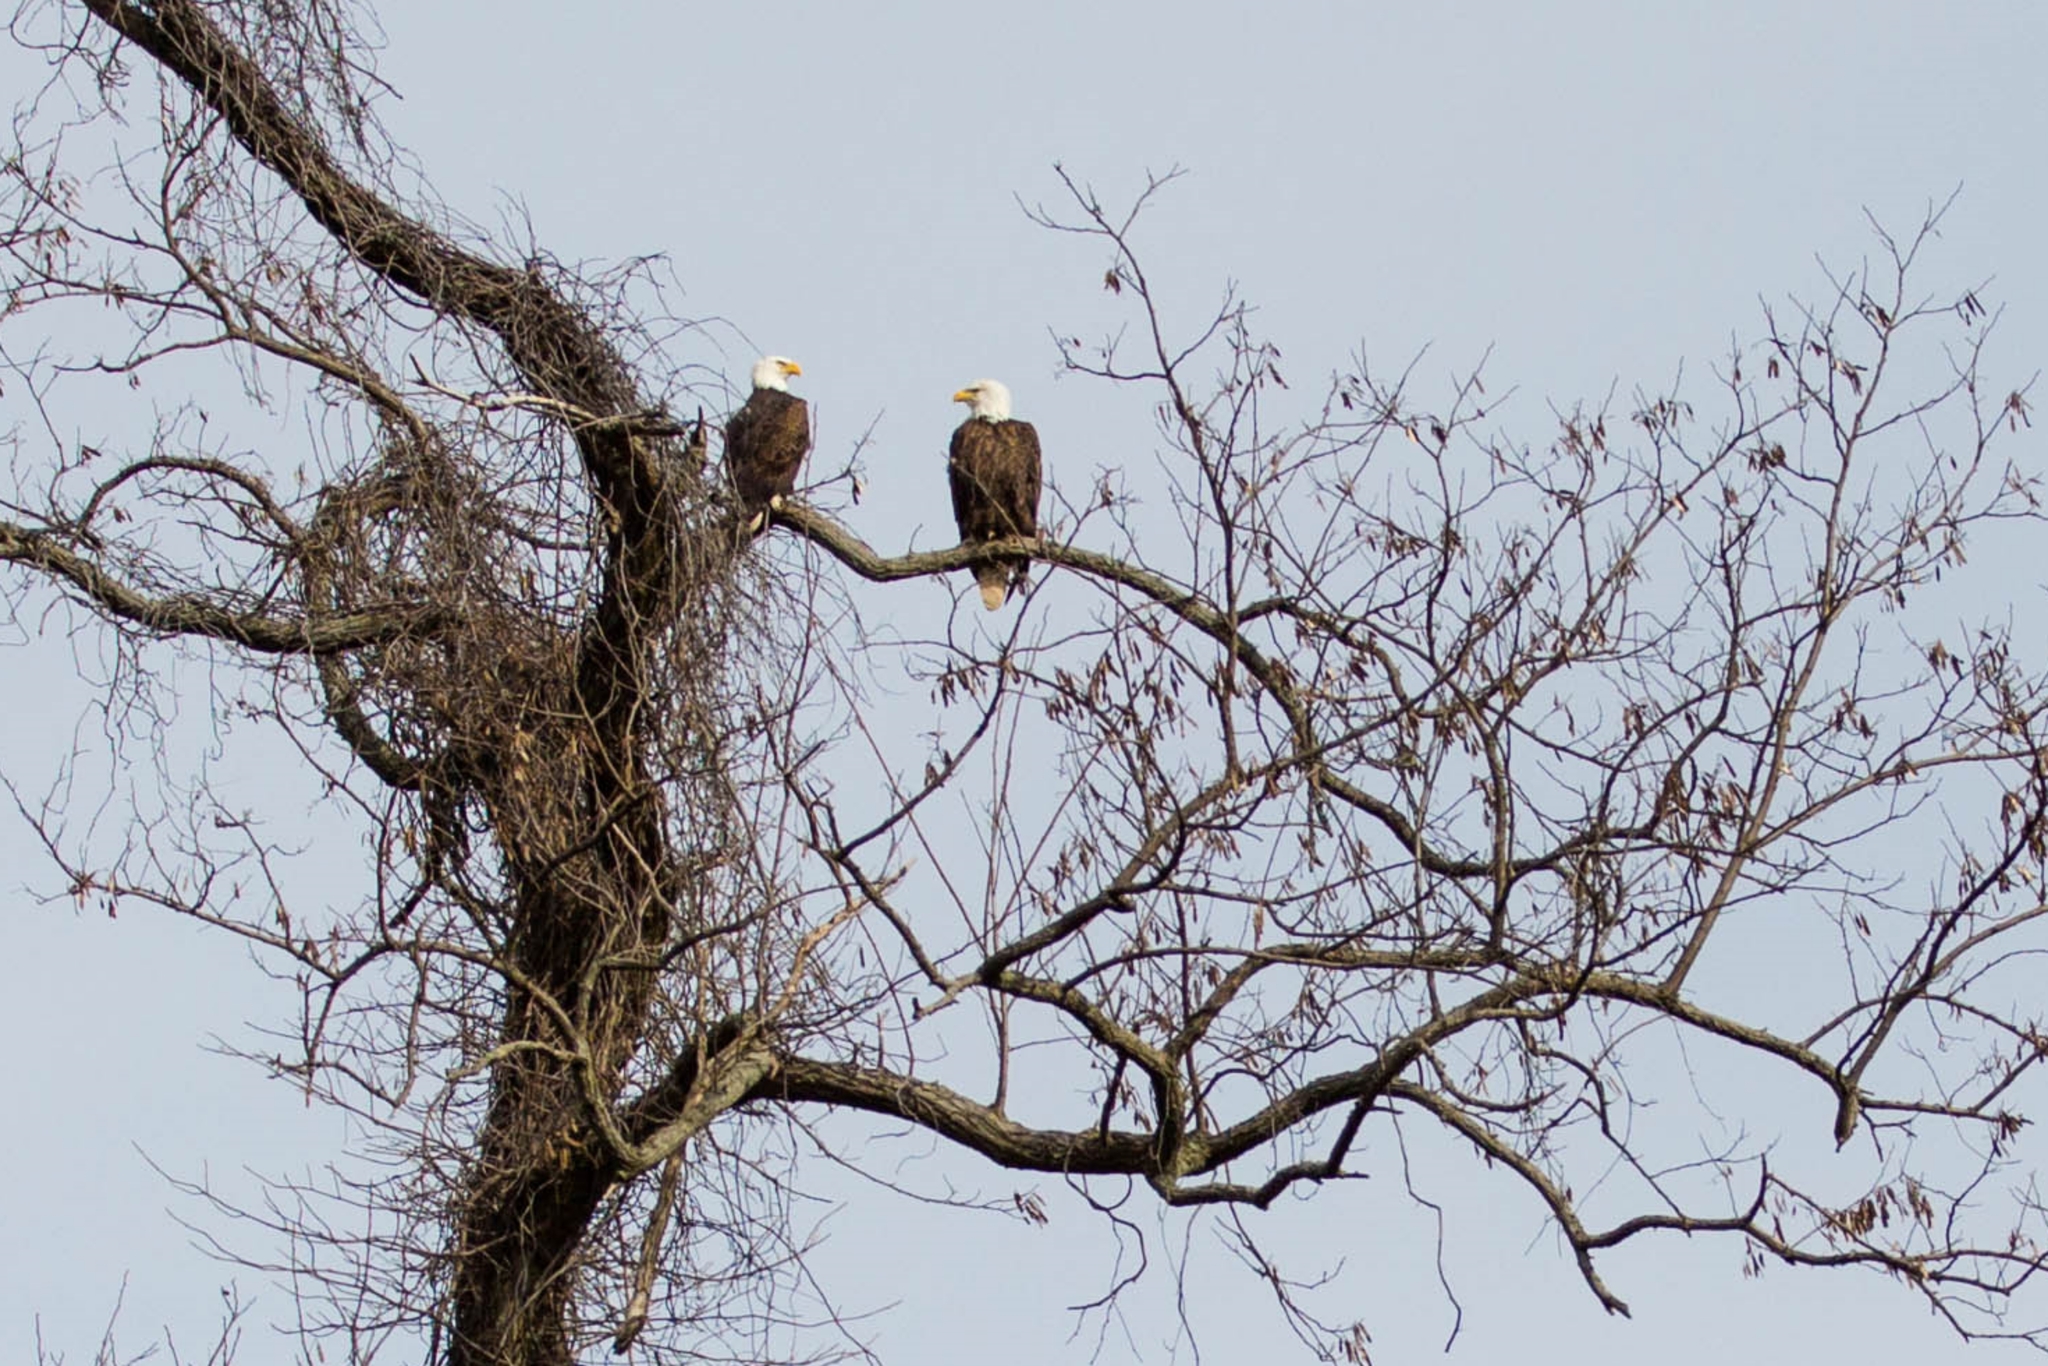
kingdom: Animalia
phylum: Chordata
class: Aves
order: Accipitriformes
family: Accipitridae
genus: Haliaeetus
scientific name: Haliaeetus leucocephalus
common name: Bald eagle
